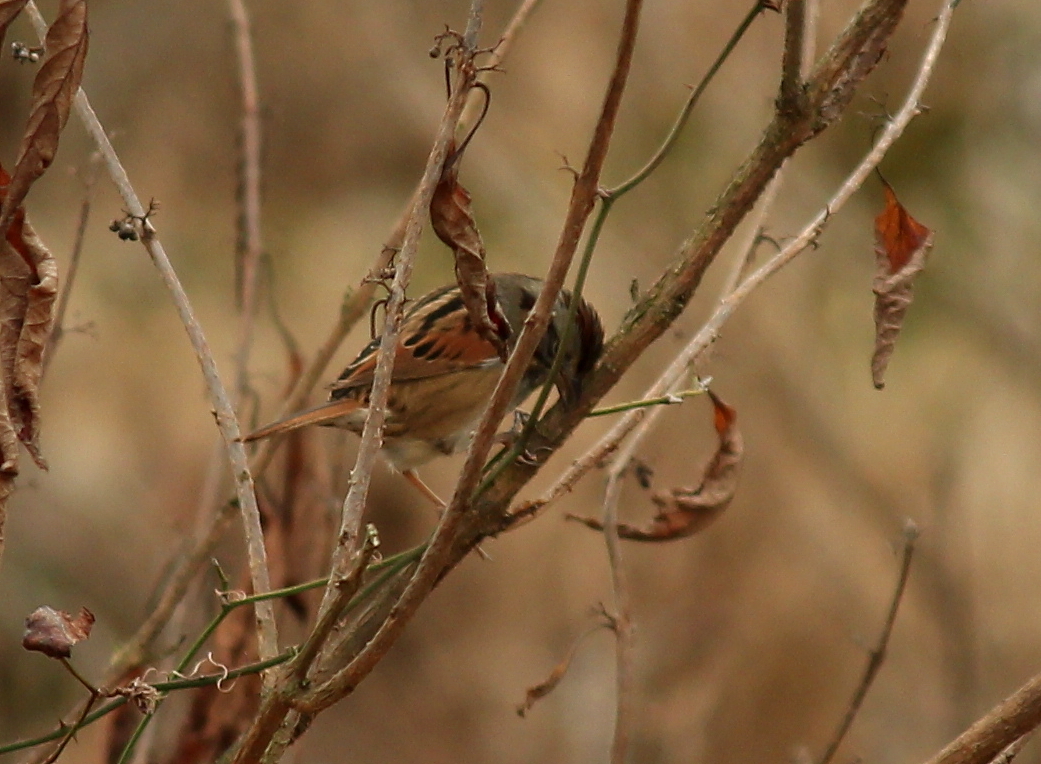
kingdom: Animalia
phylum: Chordata
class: Aves
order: Passeriformes
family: Passerellidae
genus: Melospiza
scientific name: Melospiza georgiana
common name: Swamp sparrow
